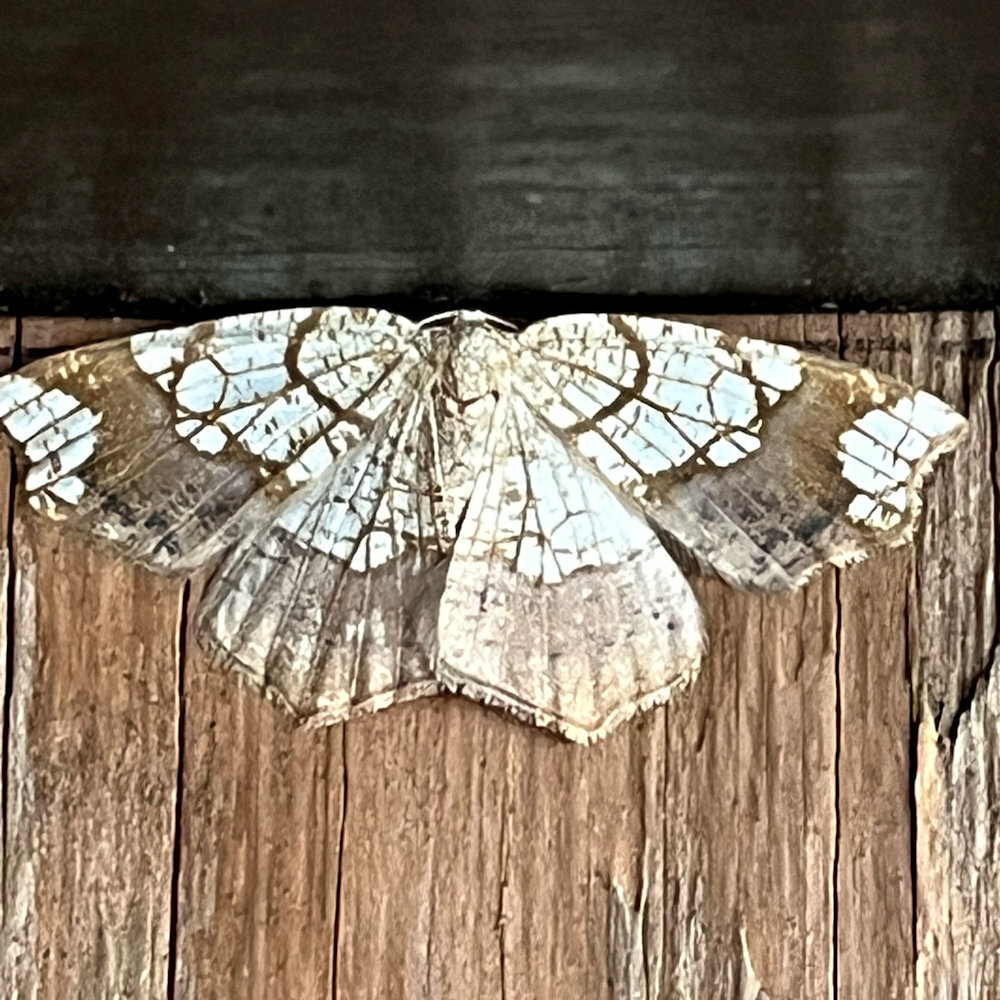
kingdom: Animalia
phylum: Arthropoda
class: Insecta
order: Lepidoptera
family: Geometridae
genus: Nematocampa
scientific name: Nematocampa resistaria
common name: Horned spanworm moth
